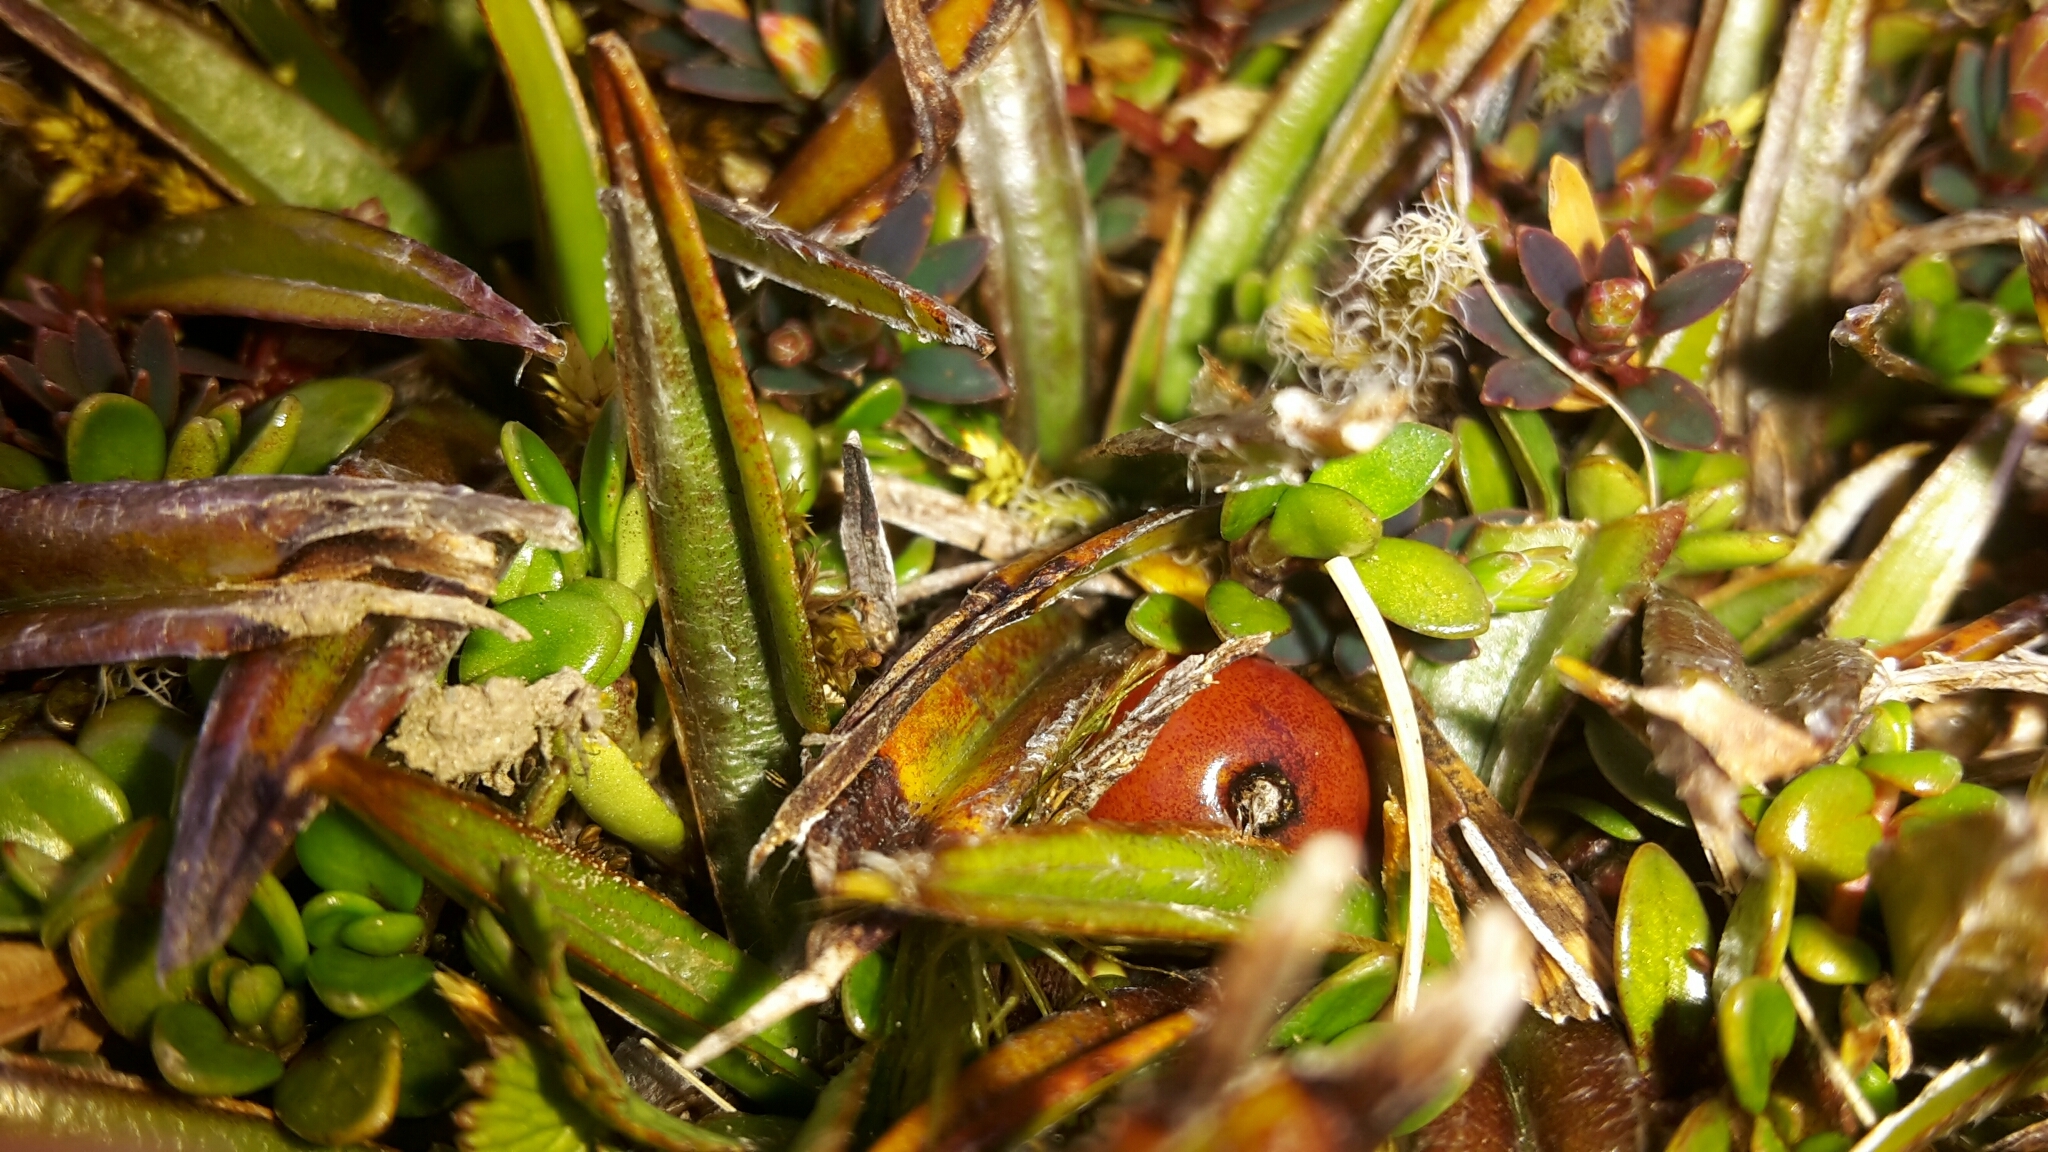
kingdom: Plantae
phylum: Tracheophyta
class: Liliopsida
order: Asparagales
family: Asteliaceae
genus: Astelia
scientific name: Astelia linearis
